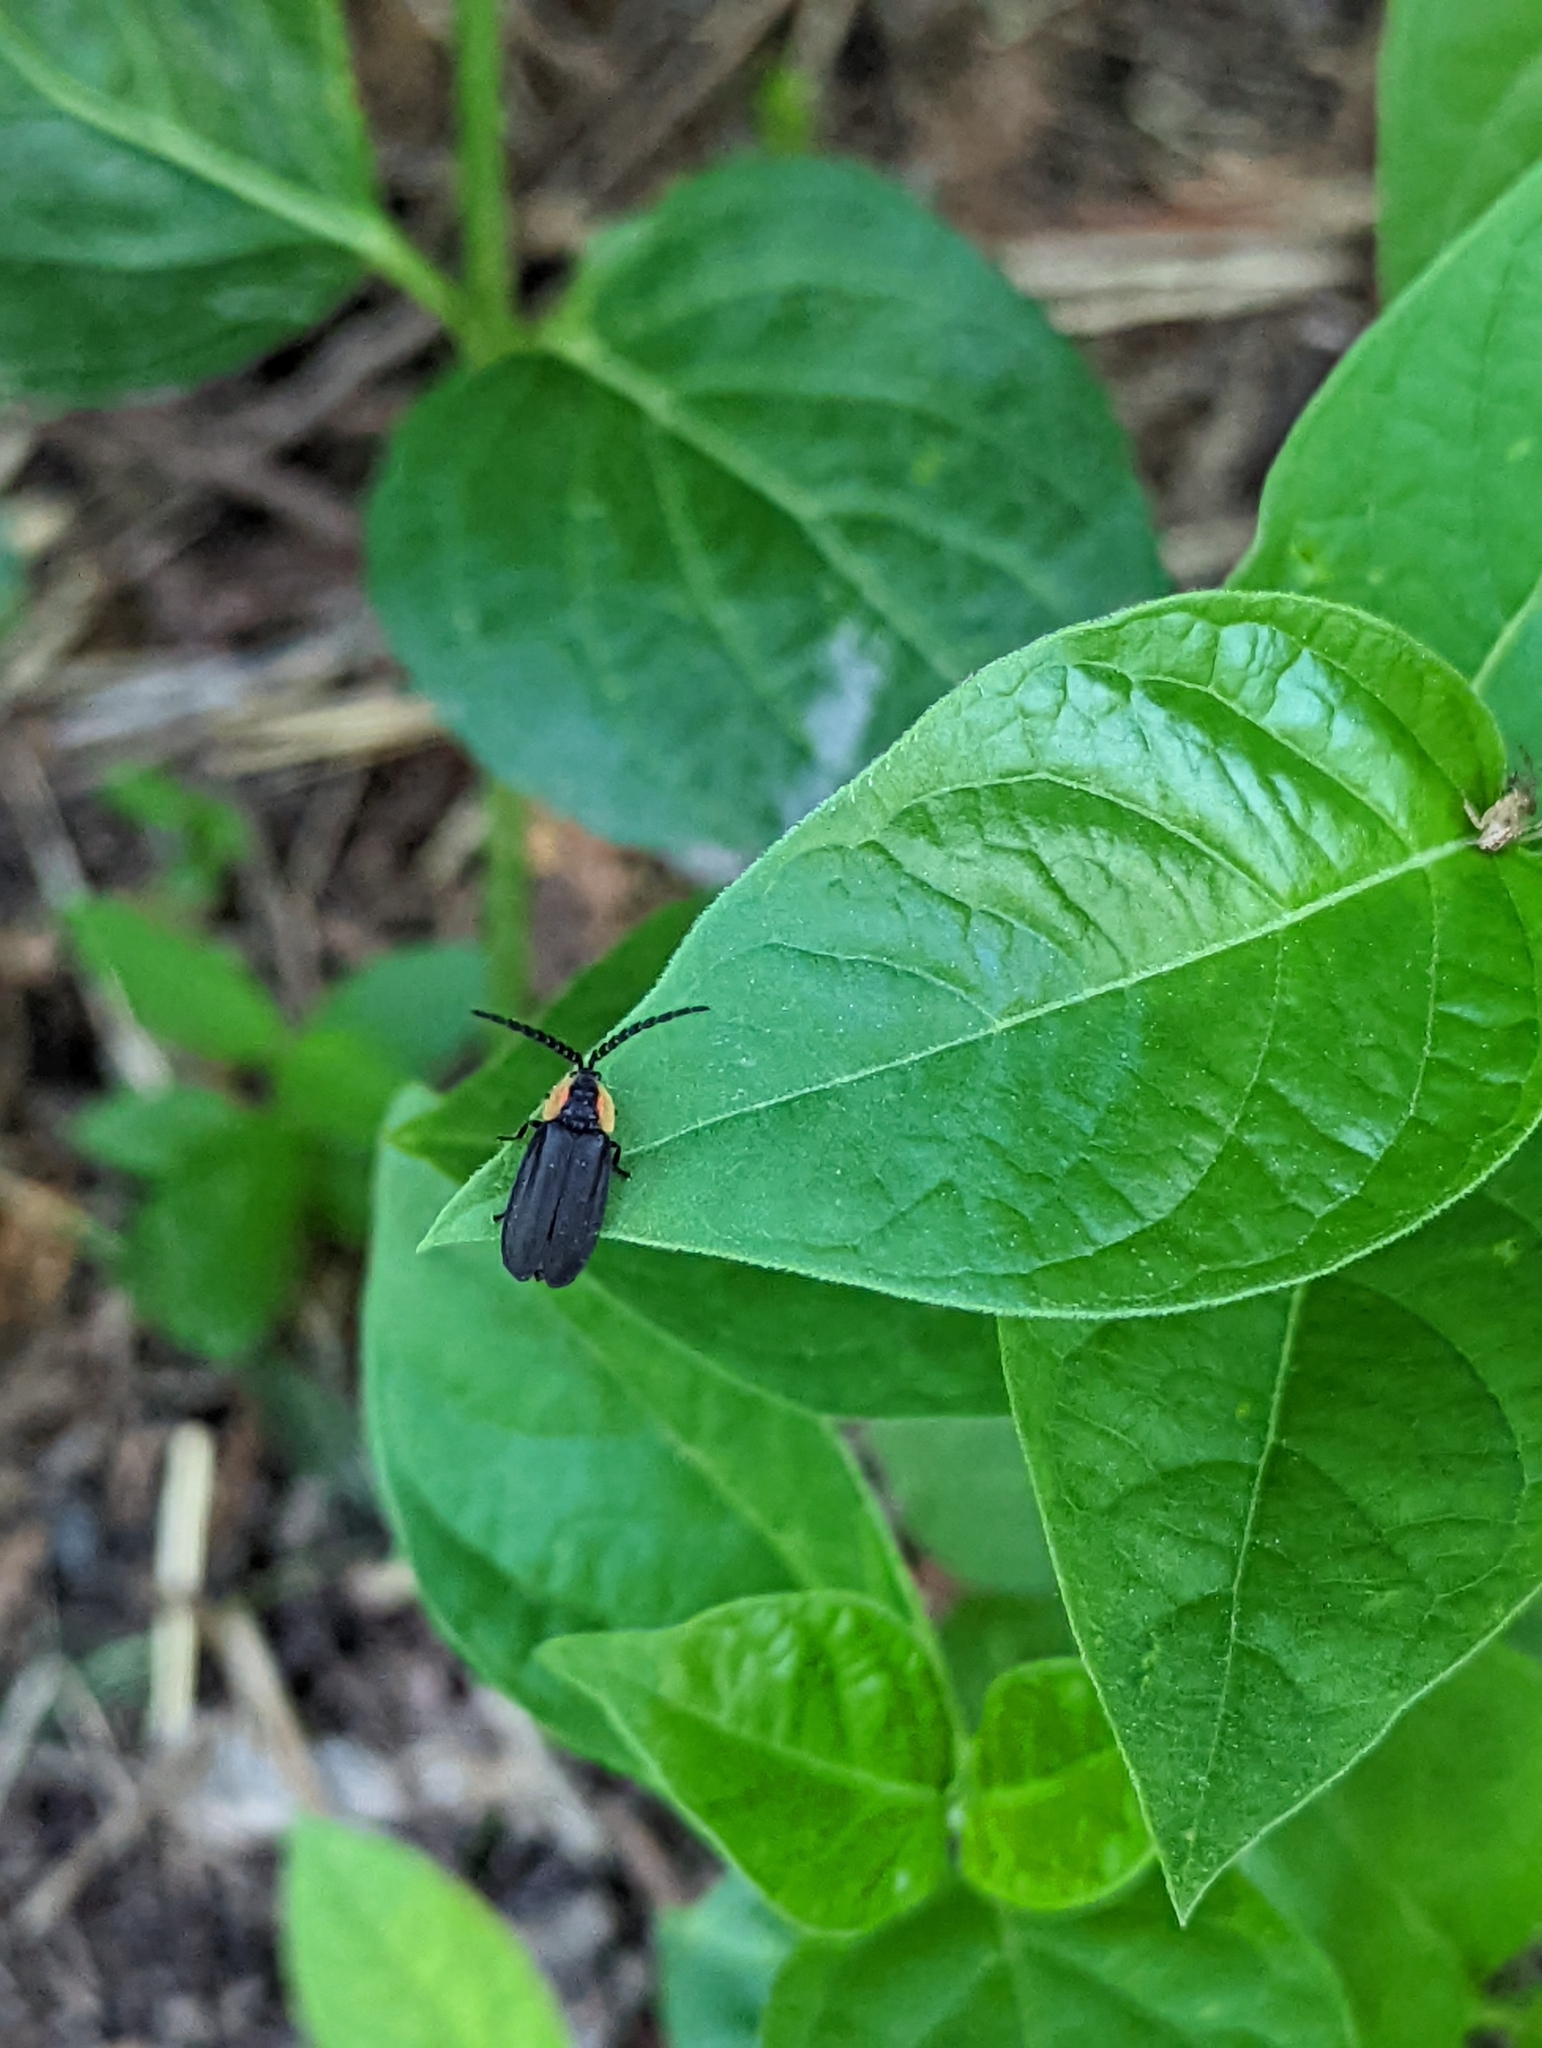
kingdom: Animalia
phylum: Arthropoda
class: Insecta
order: Coleoptera
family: Lampyridae
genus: Lucidota
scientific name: Lucidota atra
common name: Black firefly
